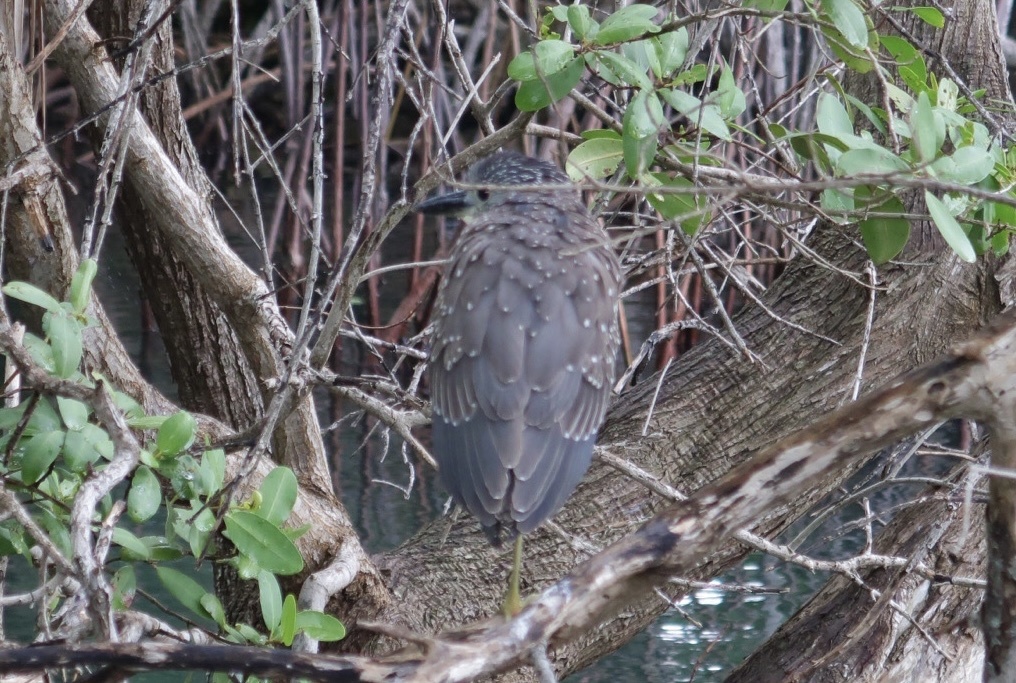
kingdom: Animalia
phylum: Chordata
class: Aves
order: Pelecaniformes
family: Ardeidae
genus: Nyctanassa
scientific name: Nyctanassa violacea
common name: Yellow-crowned night heron
